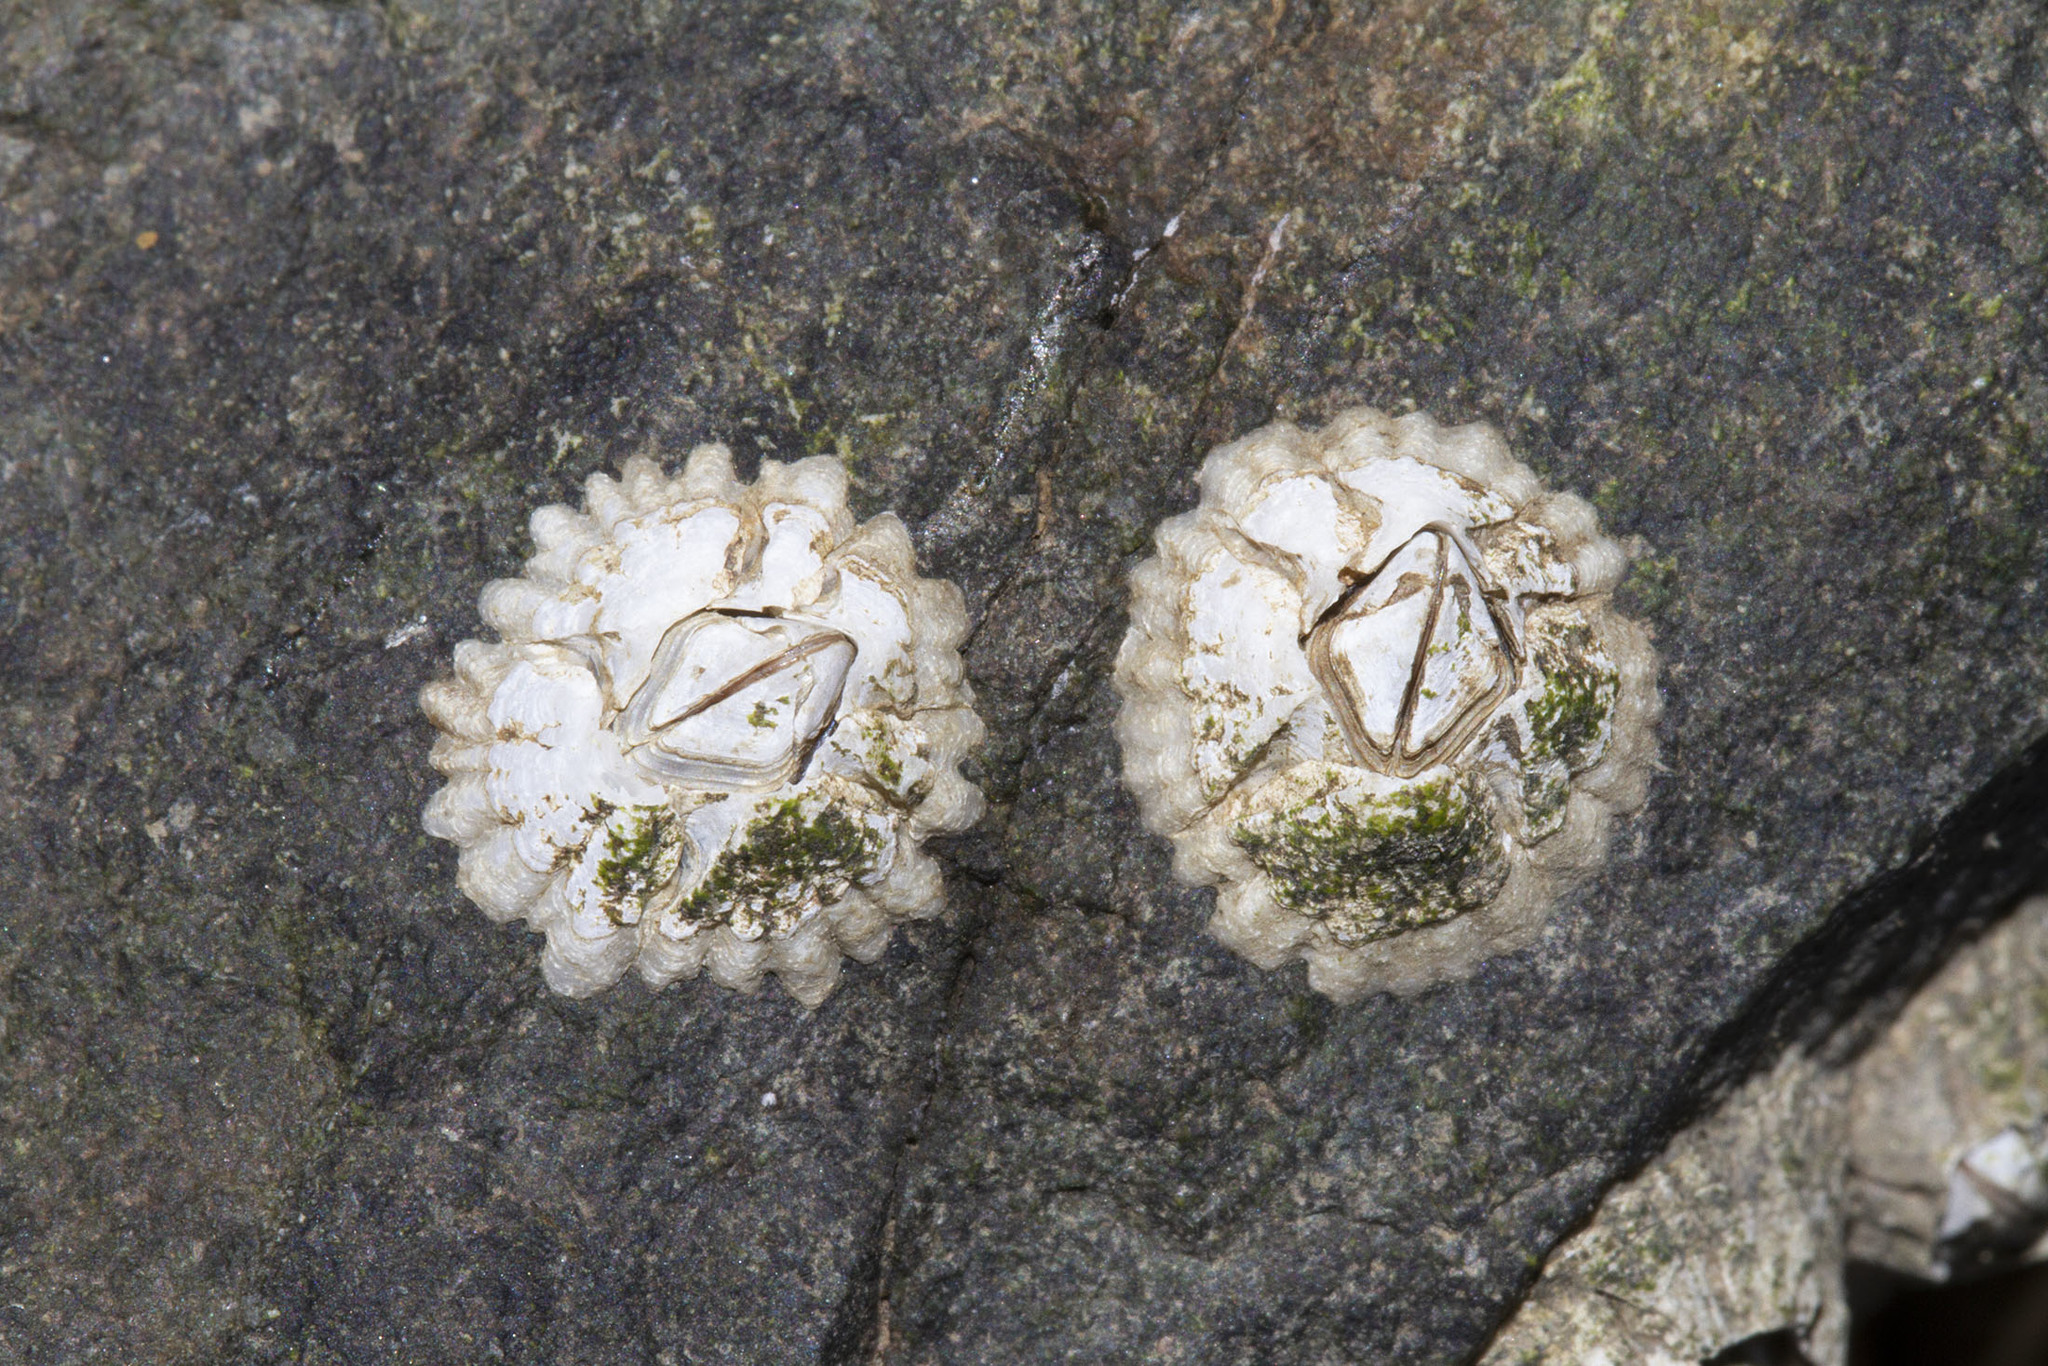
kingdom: Animalia
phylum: Arthropoda
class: Maxillopoda
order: Sessilia
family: Archaeobalanidae
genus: Semibalanus
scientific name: Semibalanus balanoides
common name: Acorn barnacle
